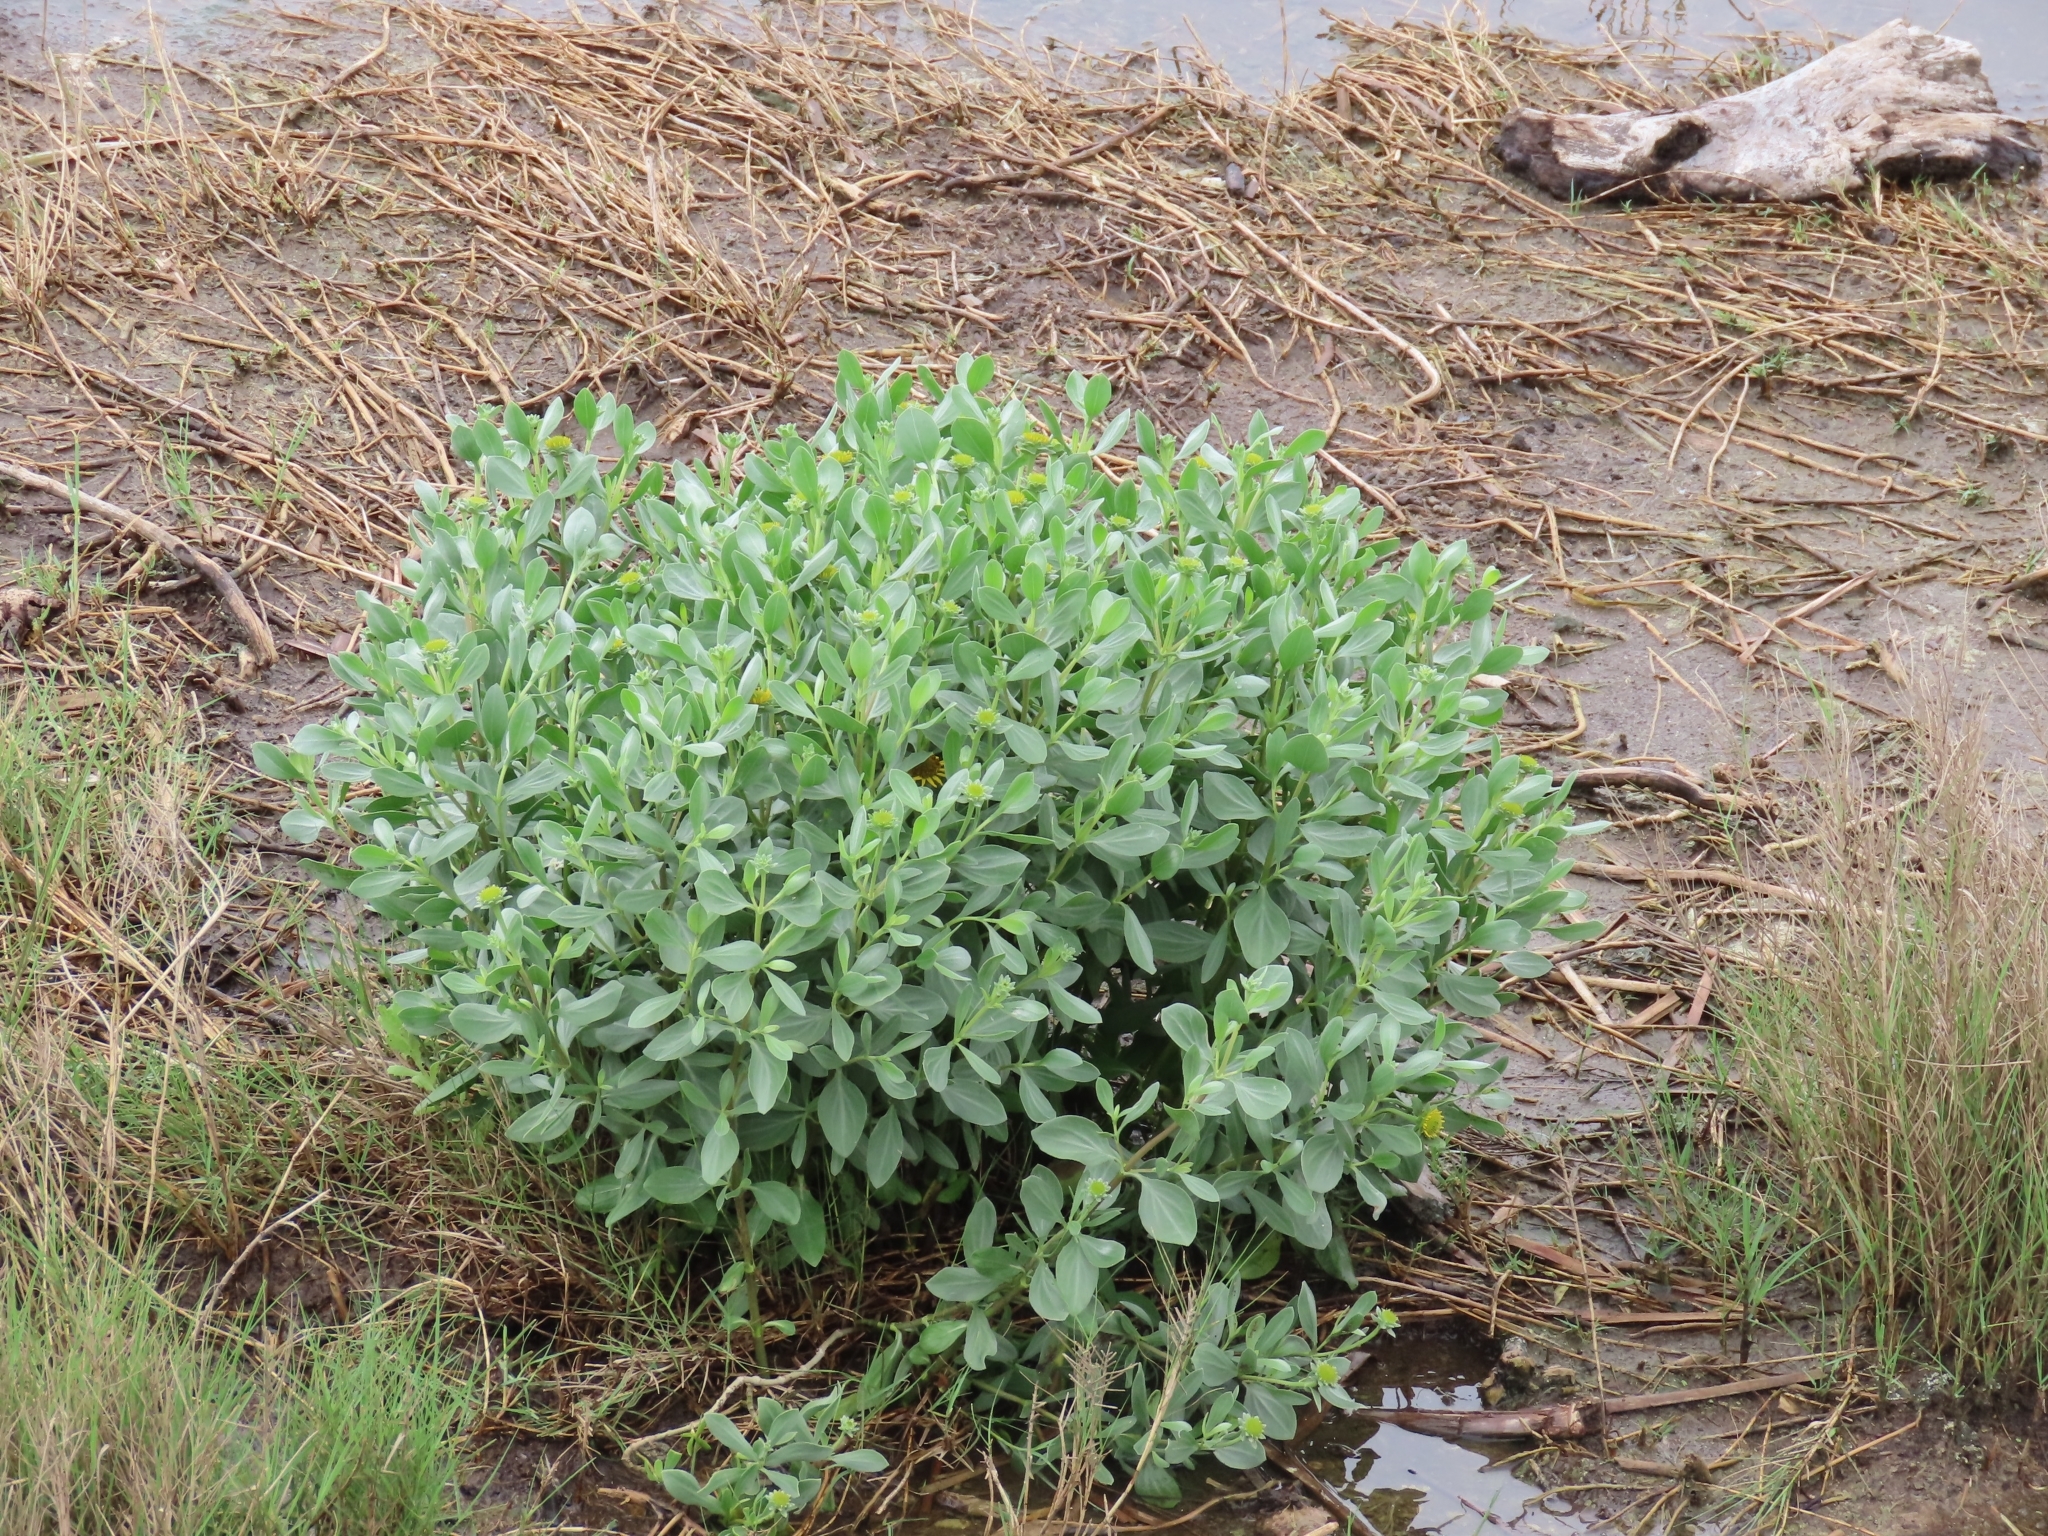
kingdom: Plantae
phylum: Tracheophyta
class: Magnoliopsida
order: Asterales
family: Asteraceae
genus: Borrichia
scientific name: Borrichia frutescens
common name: Sea oxeye
